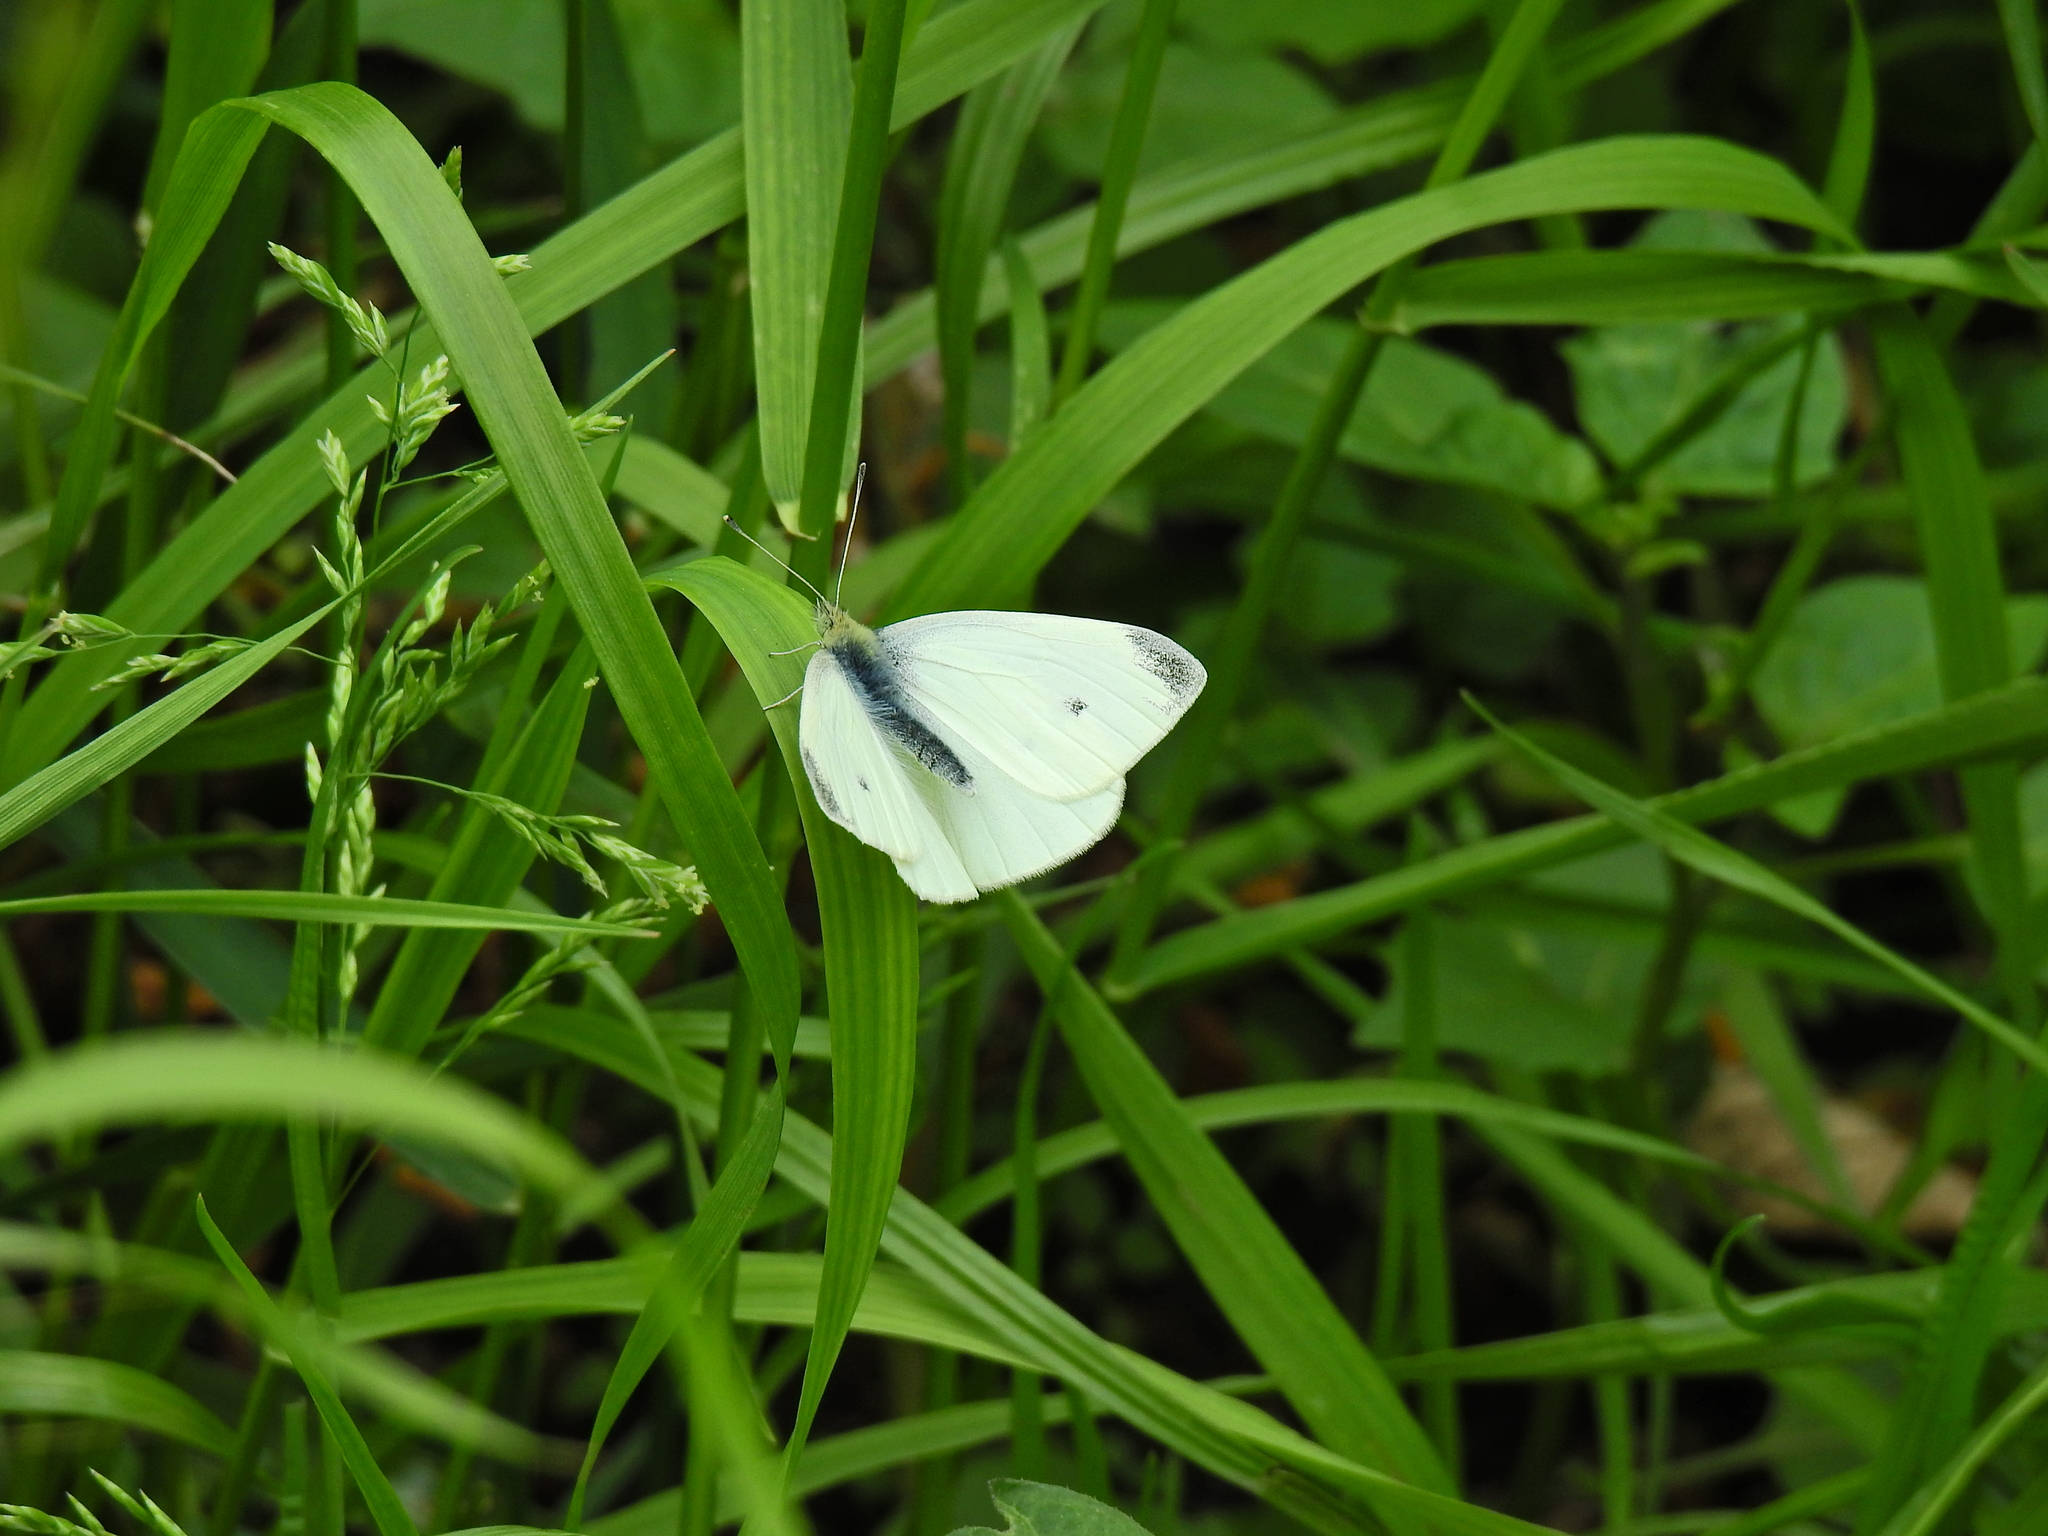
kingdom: Animalia
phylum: Arthropoda
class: Insecta
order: Lepidoptera
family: Pieridae
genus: Pieris
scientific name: Pieris rapae
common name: Small white
